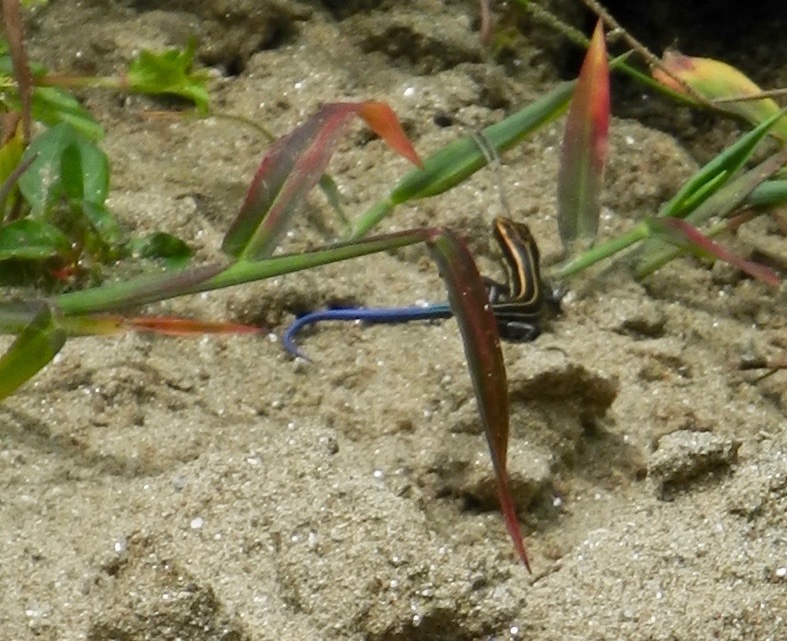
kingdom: Animalia
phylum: Chordata
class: Squamata
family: Scincidae
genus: Plestiodon
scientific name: Plestiodon fasciatus
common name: Five-lined skink
